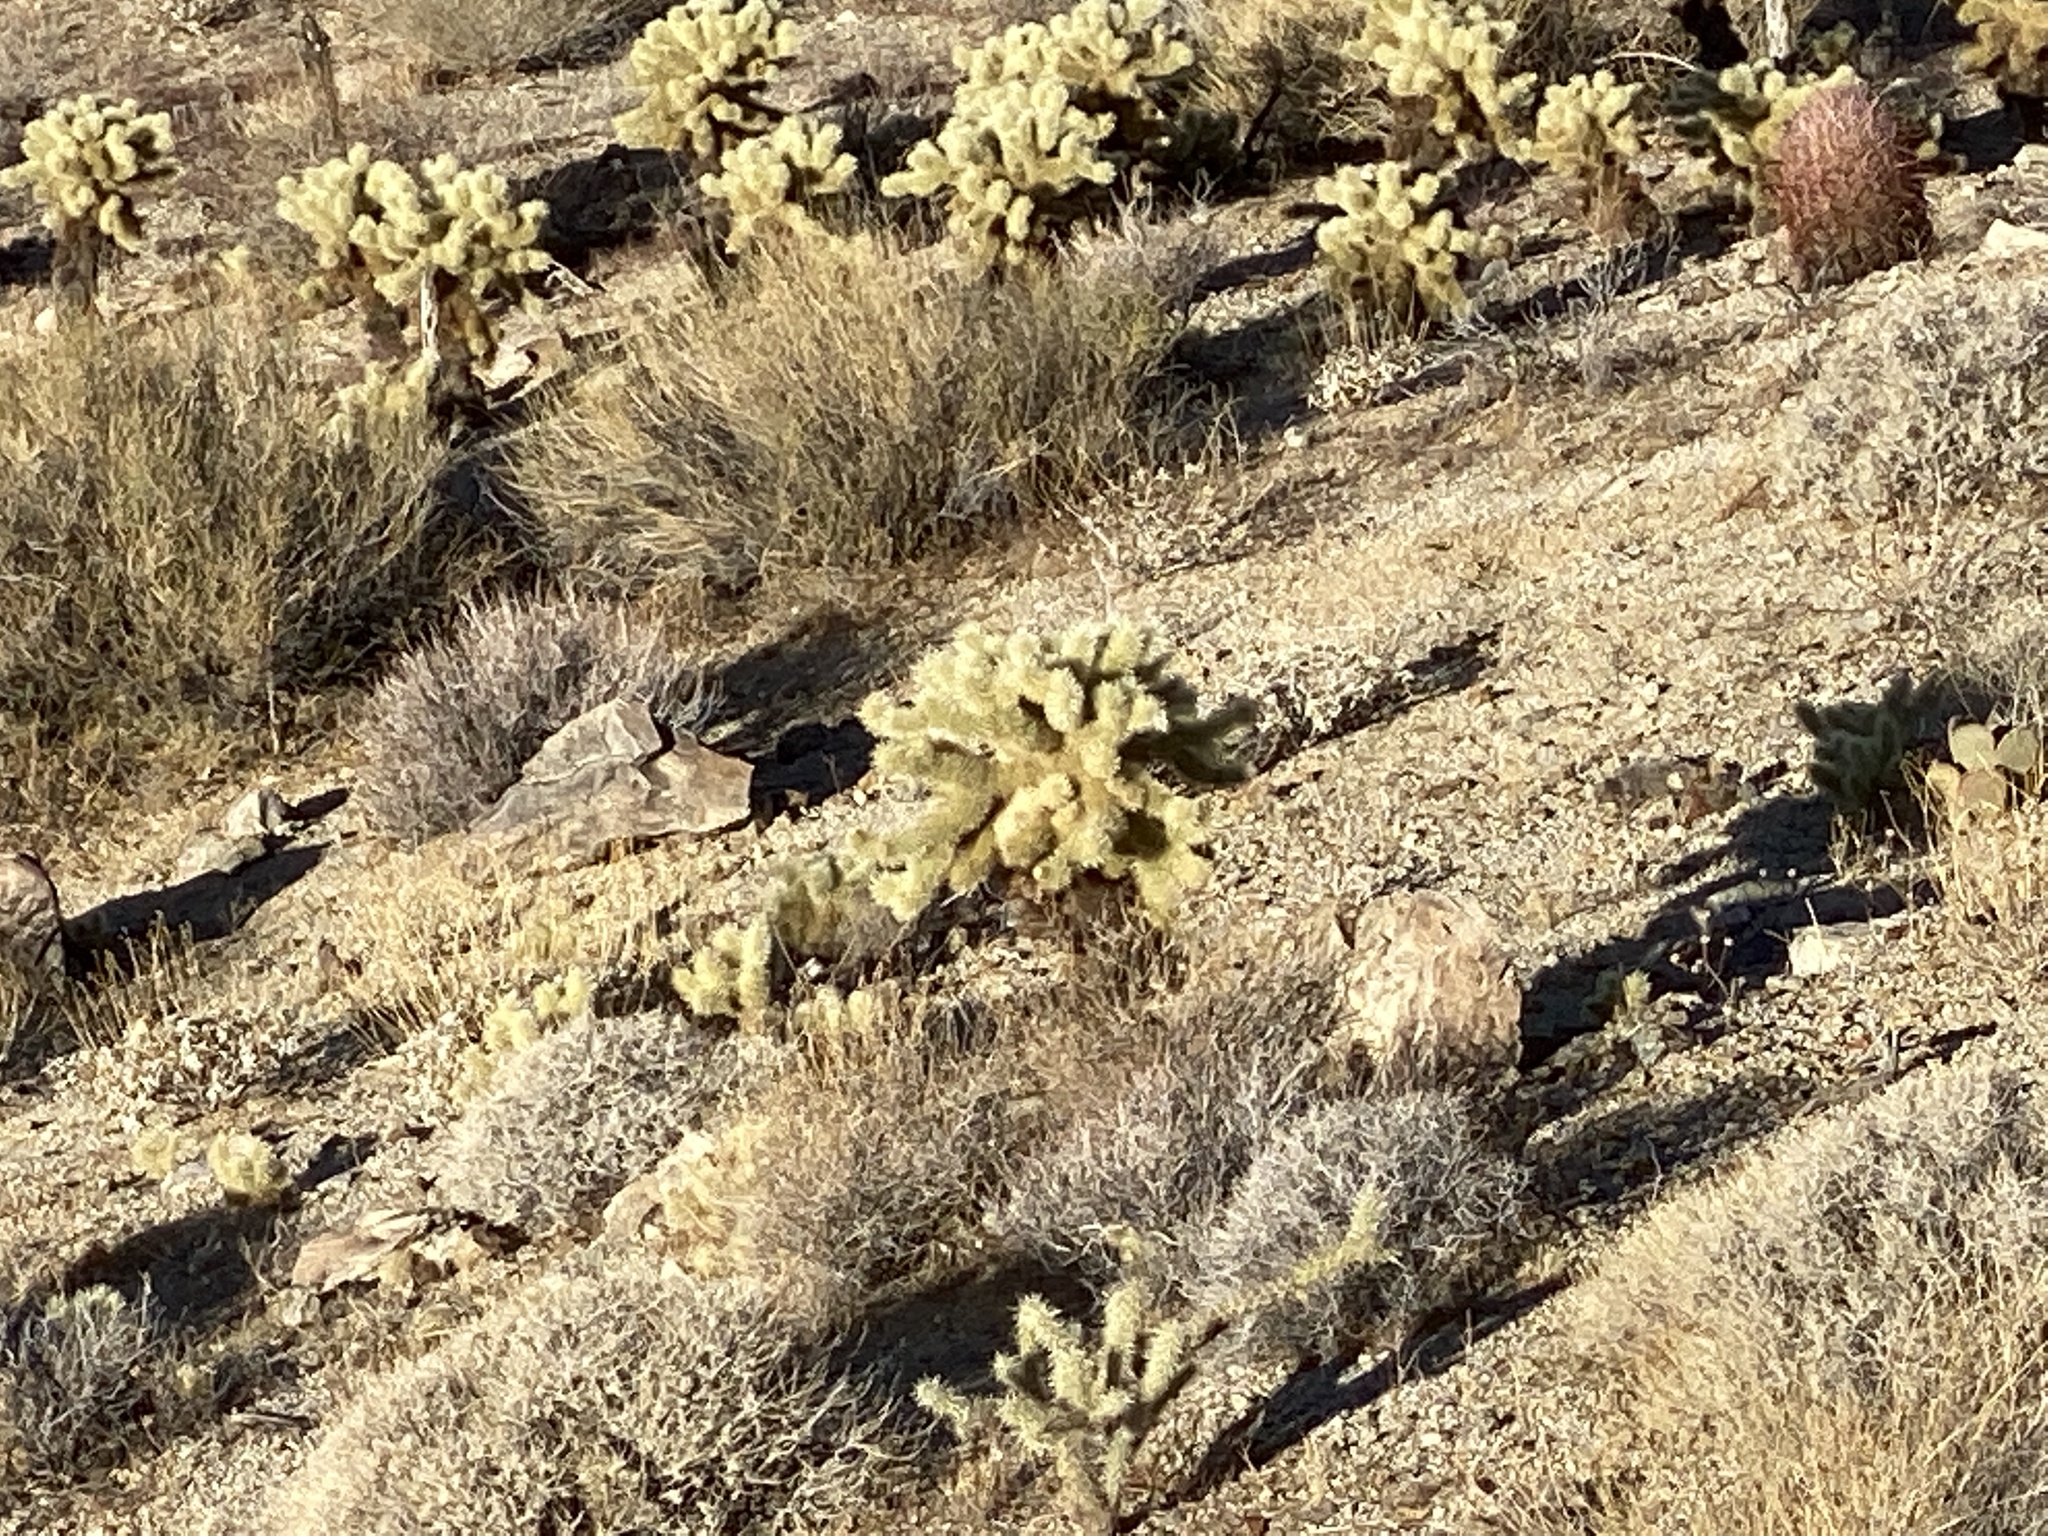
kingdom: Plantae
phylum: Tracheophyta
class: Magnoliopsida
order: Caryophyllales
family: Cactaceae
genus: Cylindropuntia
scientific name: Cylindropuntia fosbergii
